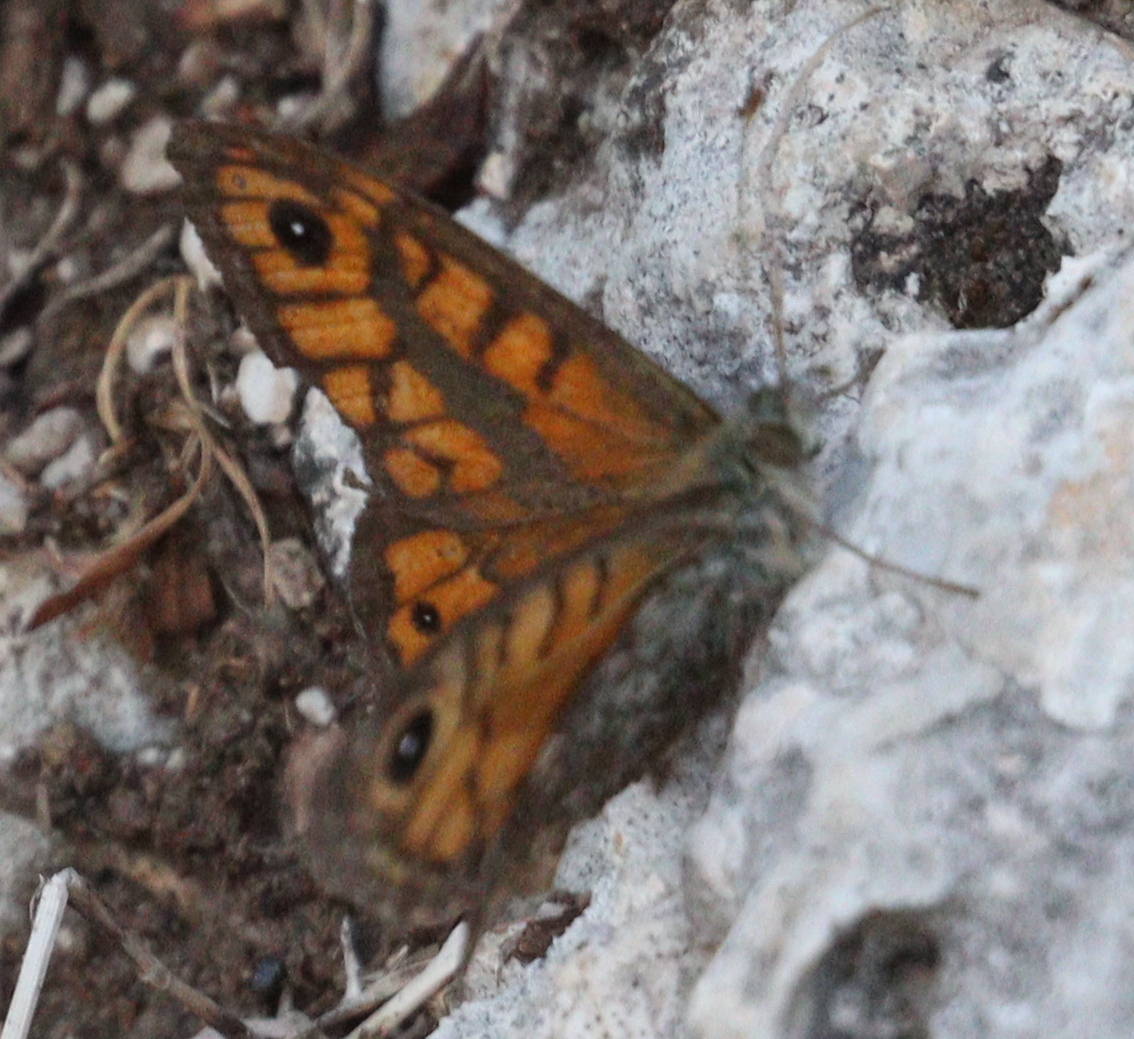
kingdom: Animalia
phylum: Arthropoda
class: Insecta
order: Lepidoptera
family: Nymphalidae
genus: Pararge
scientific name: Pararge Lasiommata megera
